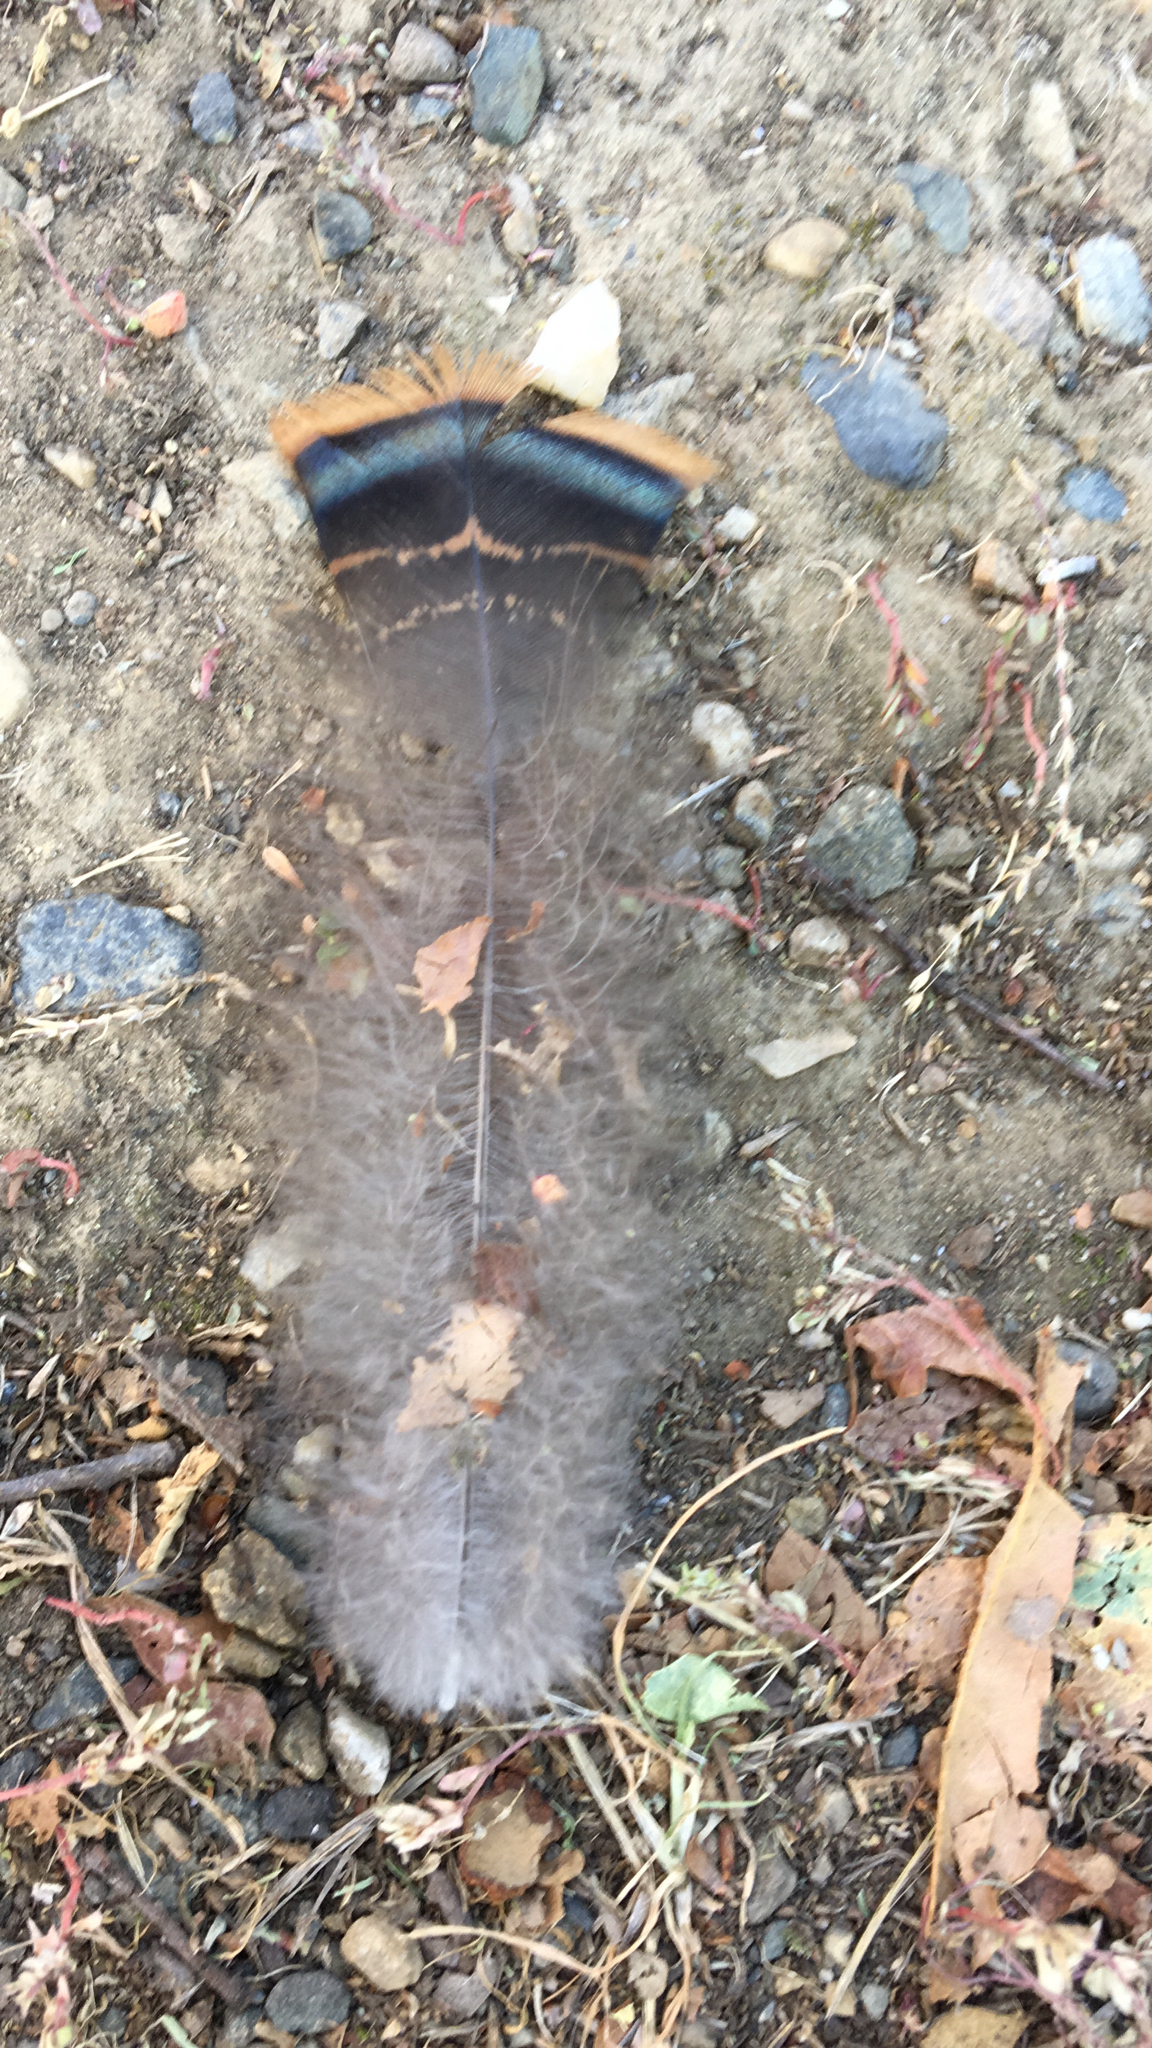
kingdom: Animalia
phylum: Chordata
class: Aves
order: Galliformes
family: Phasianidae
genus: Meleagris
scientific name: Meleagris gallopavo
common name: Wild turkey
